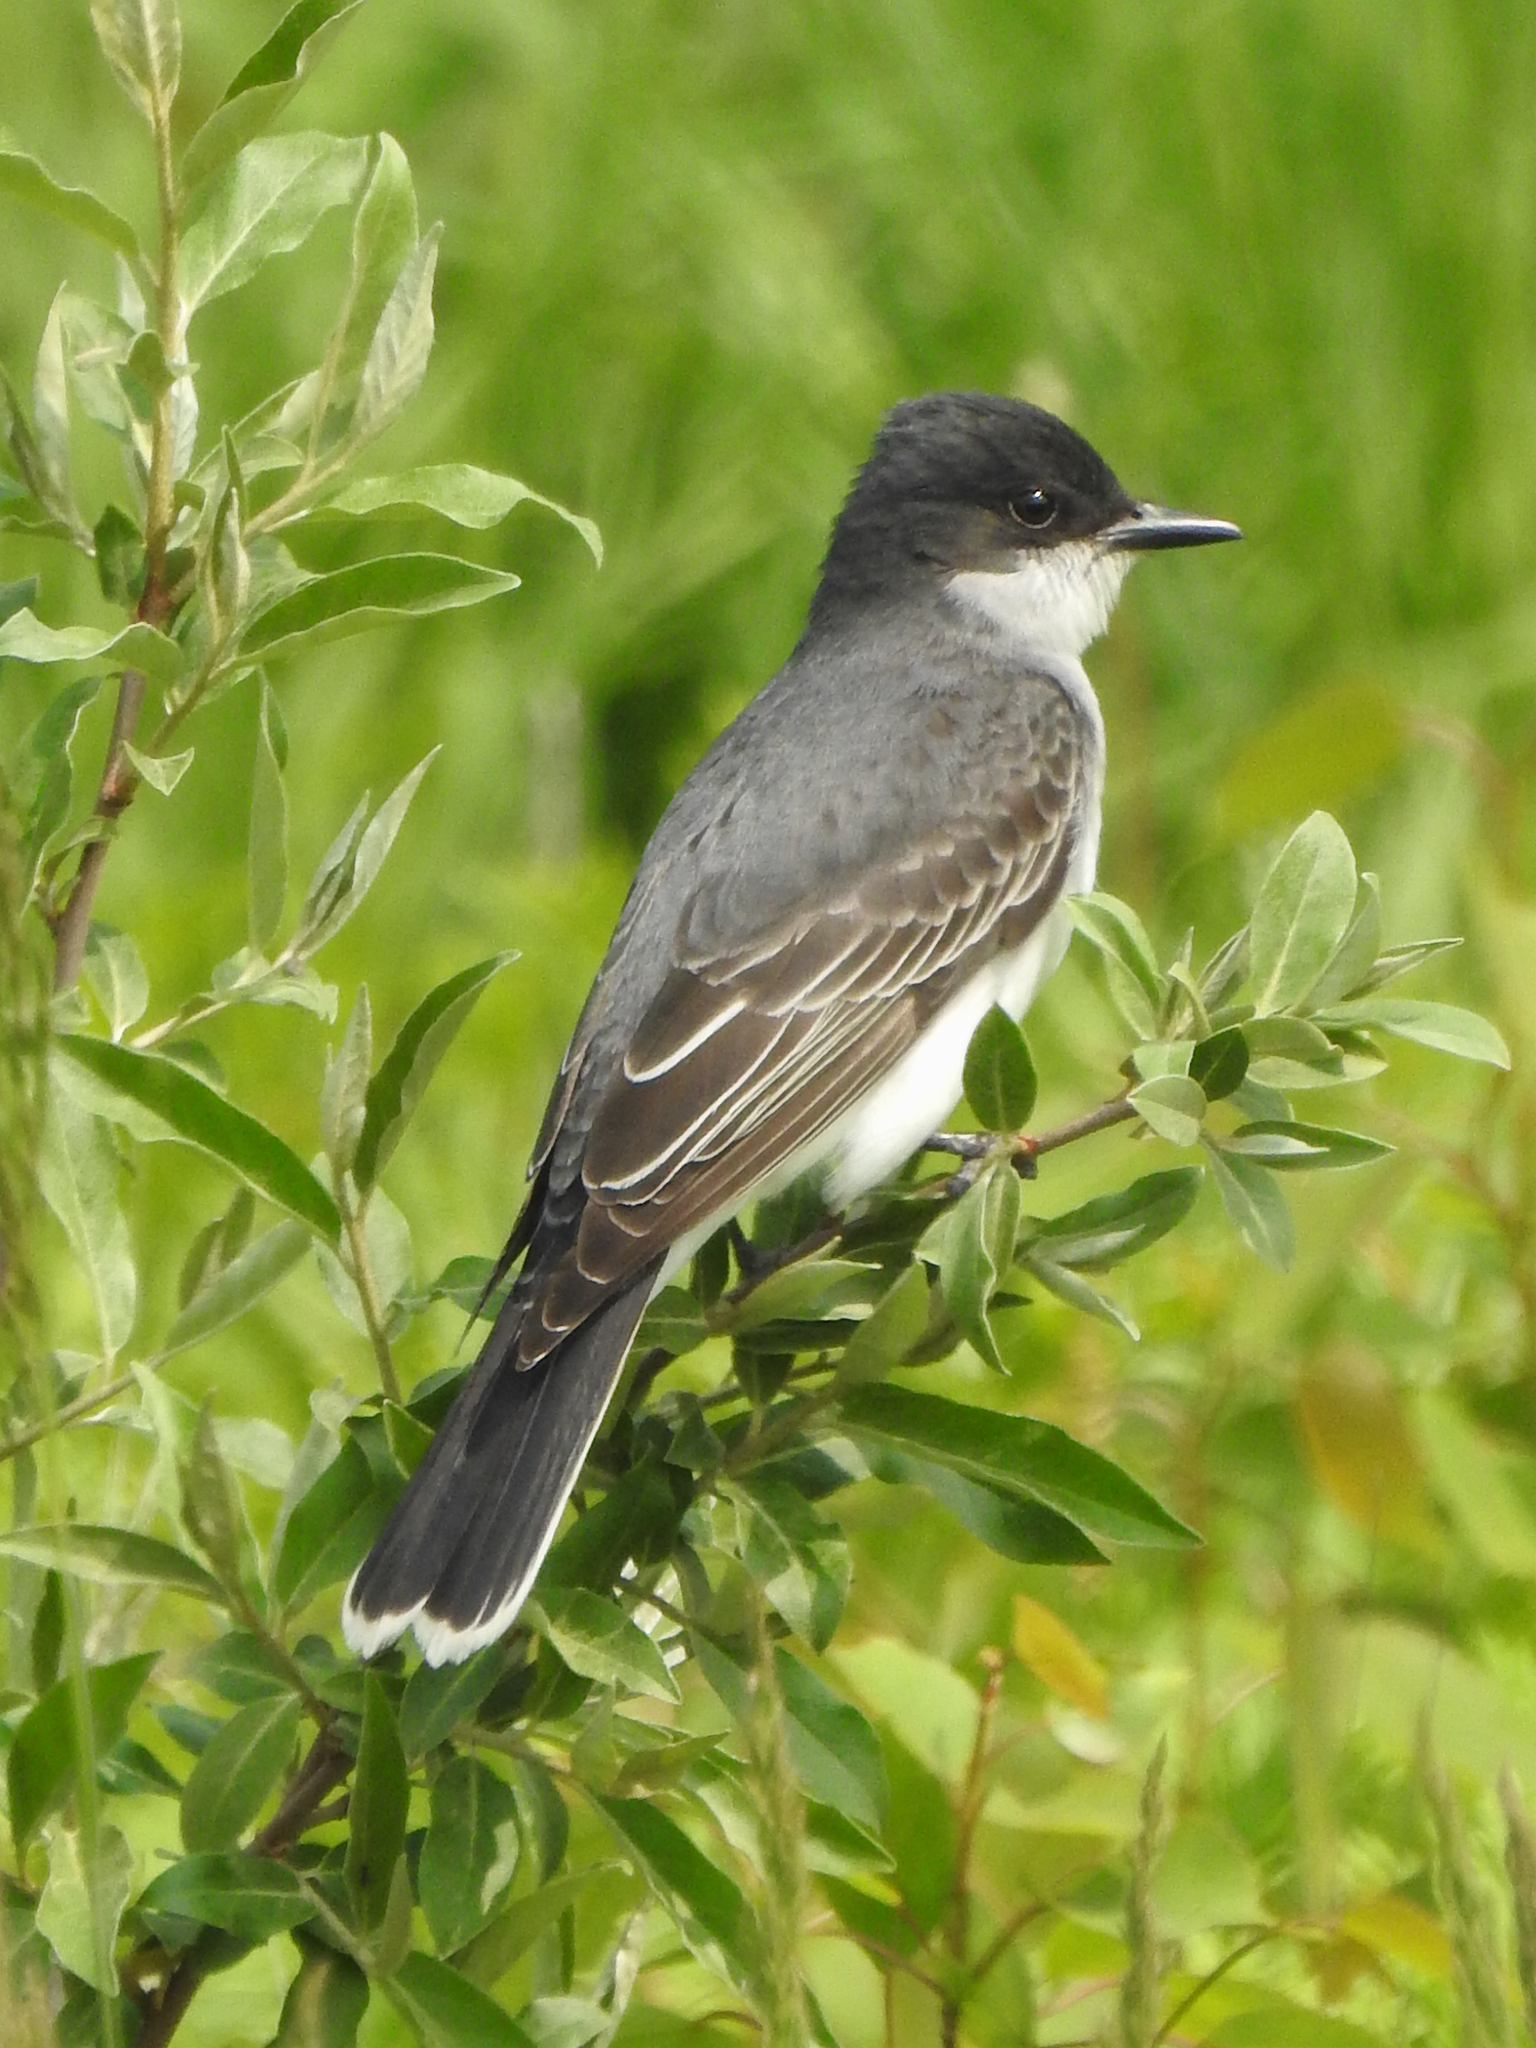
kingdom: Animalia
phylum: Chordata
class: Aves
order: Passeriformes
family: Tyrannidae
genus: Tyrannus
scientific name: Tyrannus tyrannus
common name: Eastern kingbird
